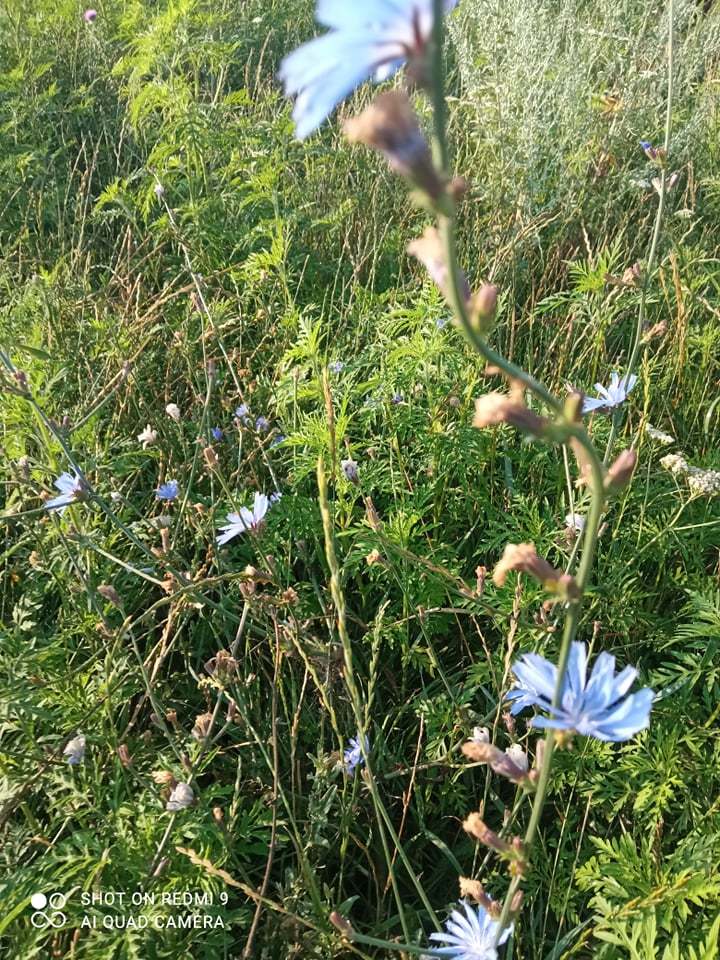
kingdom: Plantae
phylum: Tracheophyta
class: Magnoliopsida
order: Asterales
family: Asteraceae
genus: Cichorium
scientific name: Cichorium intybus
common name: Chicory
